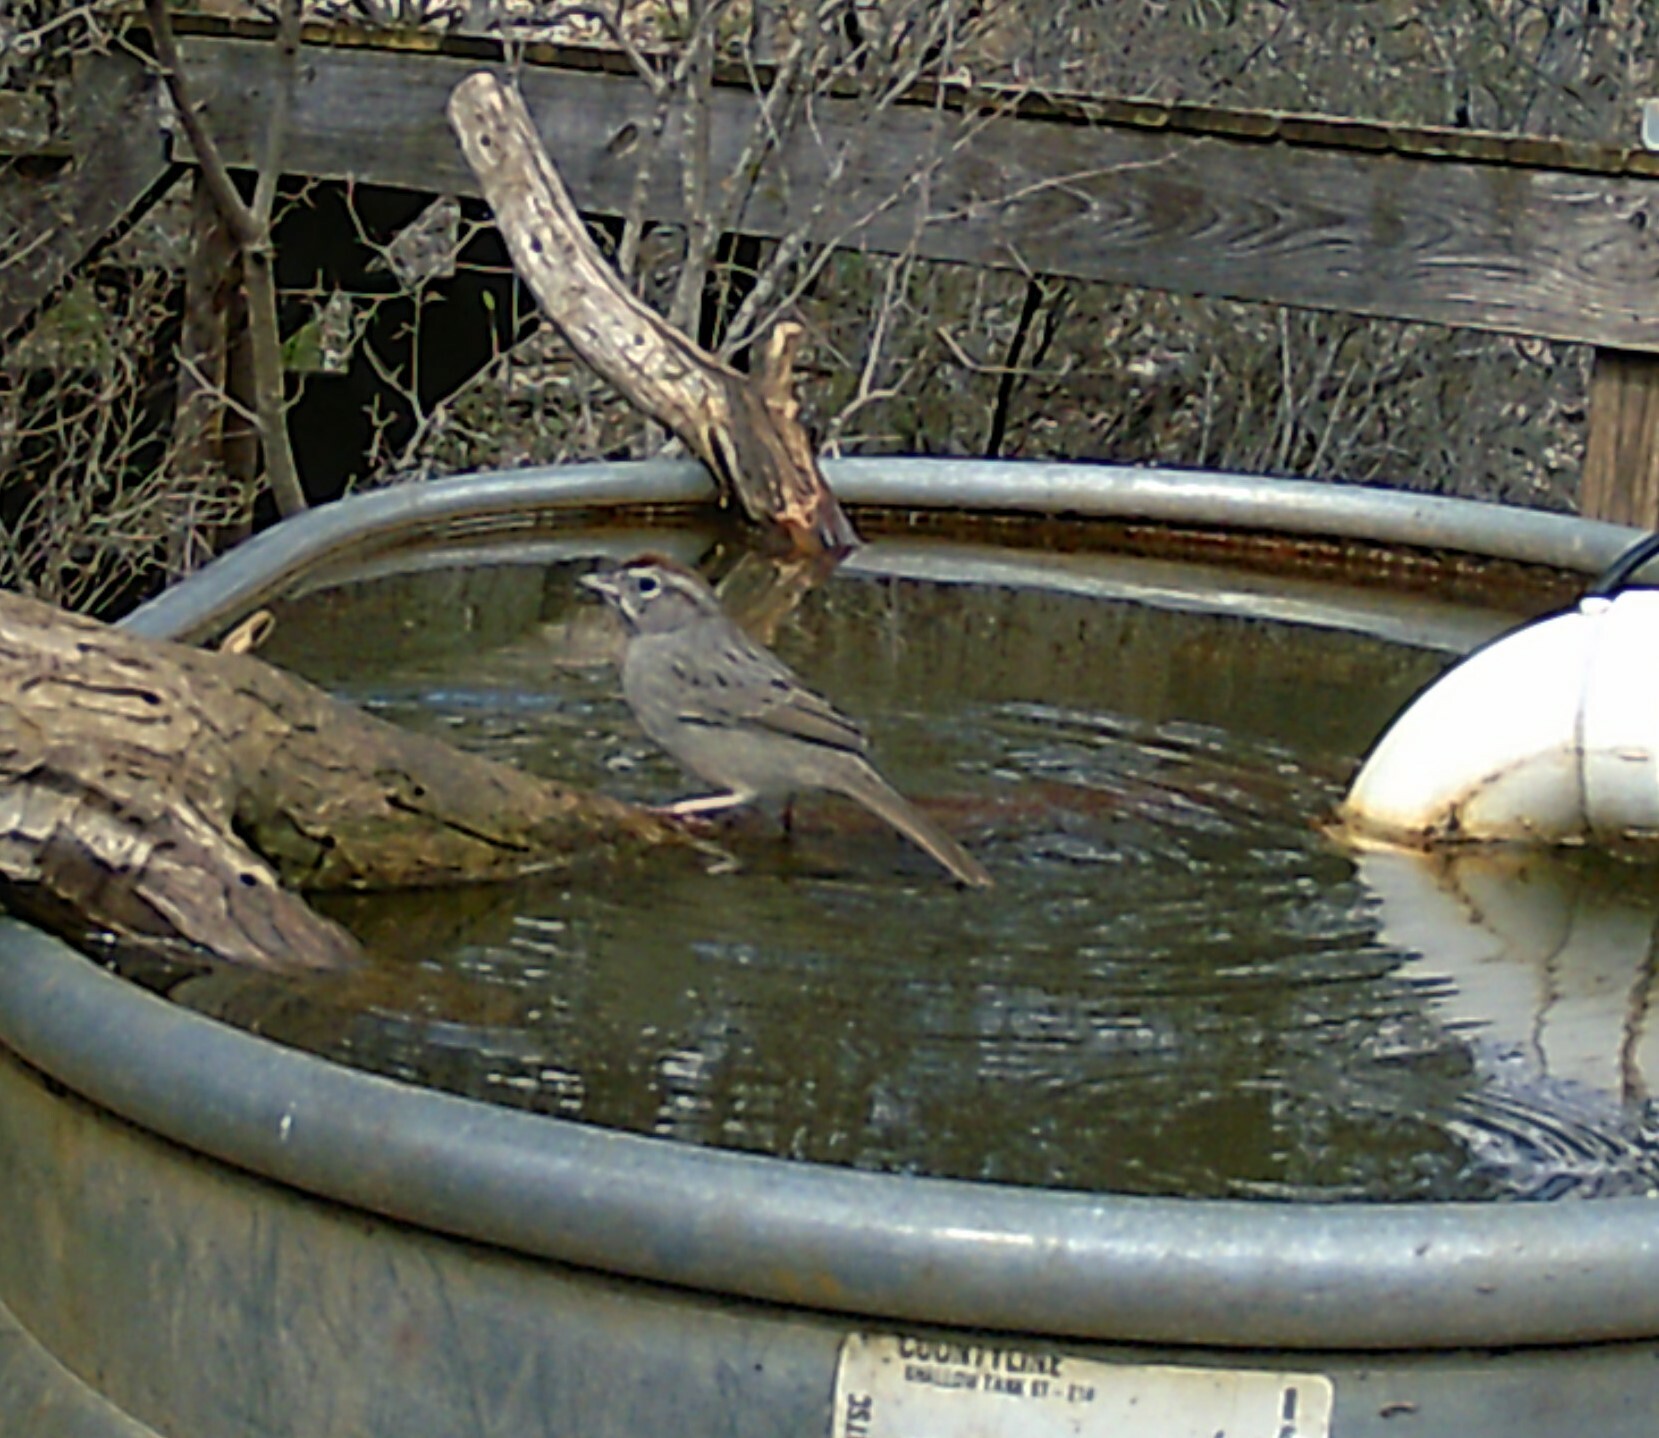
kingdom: Animalia
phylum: Chordata
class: Aves
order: Passeriformes
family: Passerellidae
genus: Aimophila
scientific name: Aimophila ruficeps
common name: Rufous-crowned sparrow
